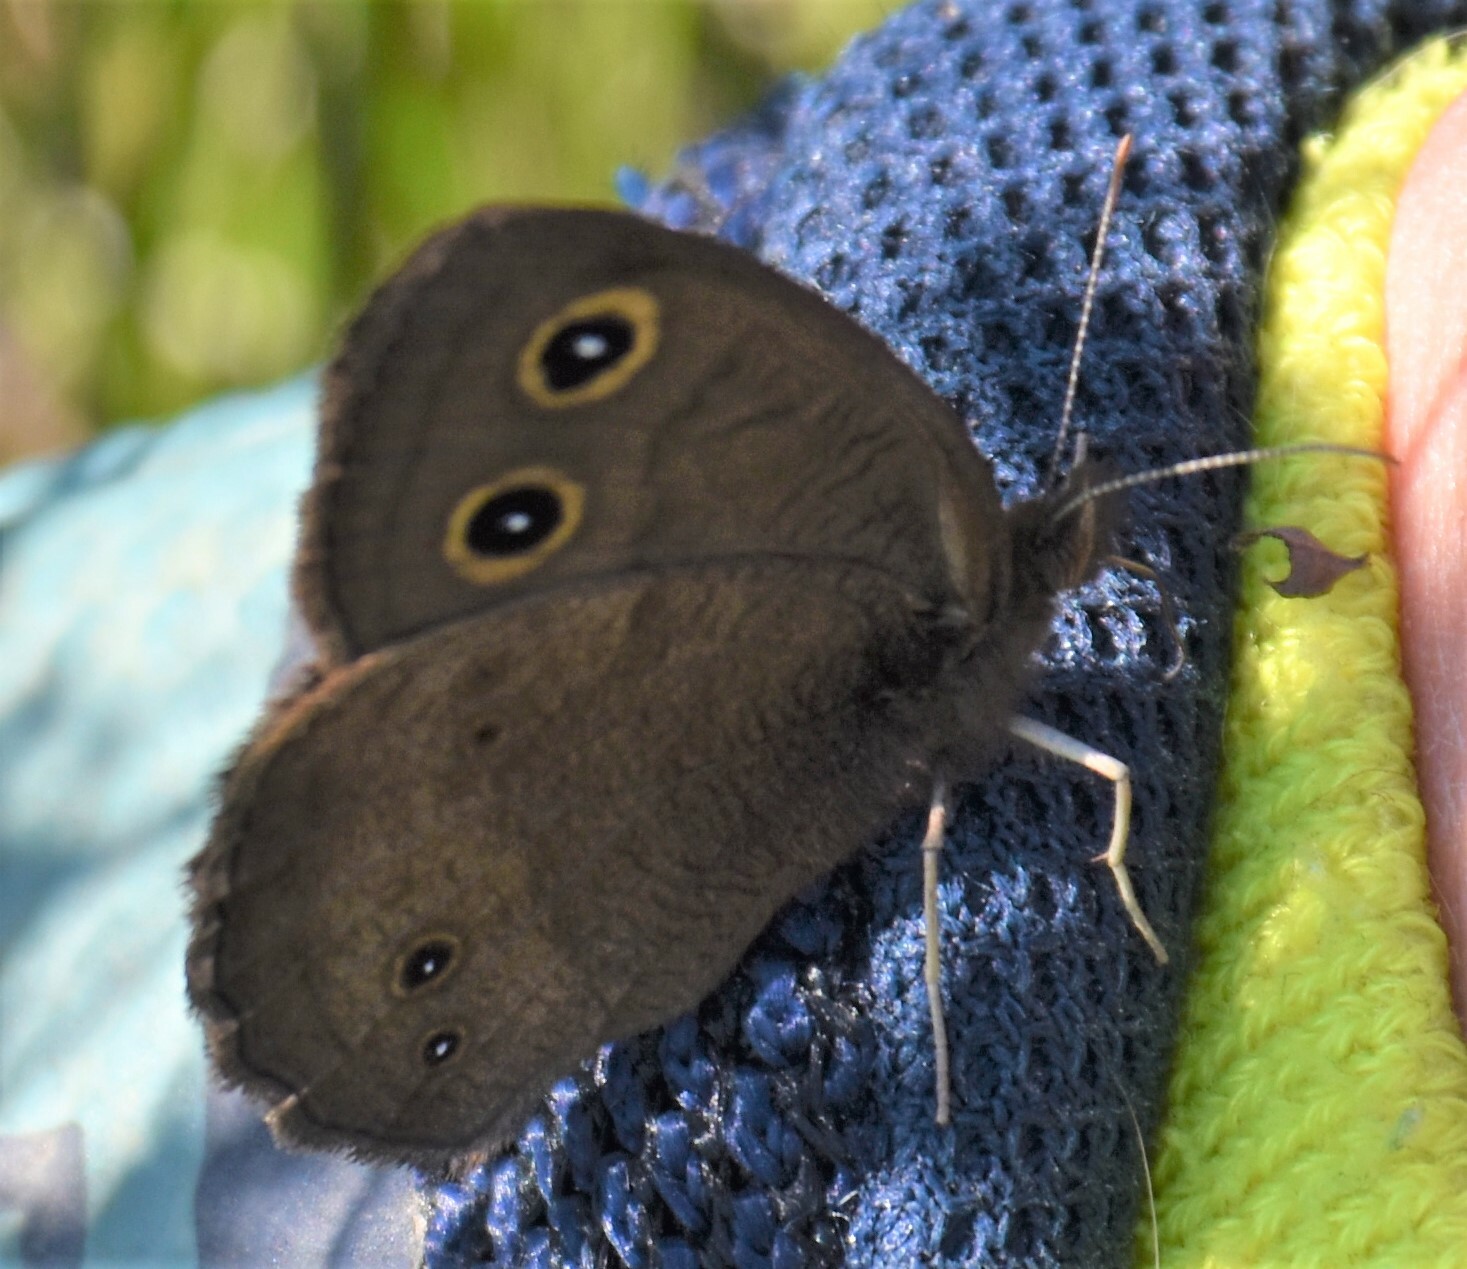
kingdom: Animalia
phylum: Arthropoda
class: Insecta
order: Lepidoptera
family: Nymphalidae
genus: Cercyonis
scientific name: Cercyonis pegala
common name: Common wood-nymph
